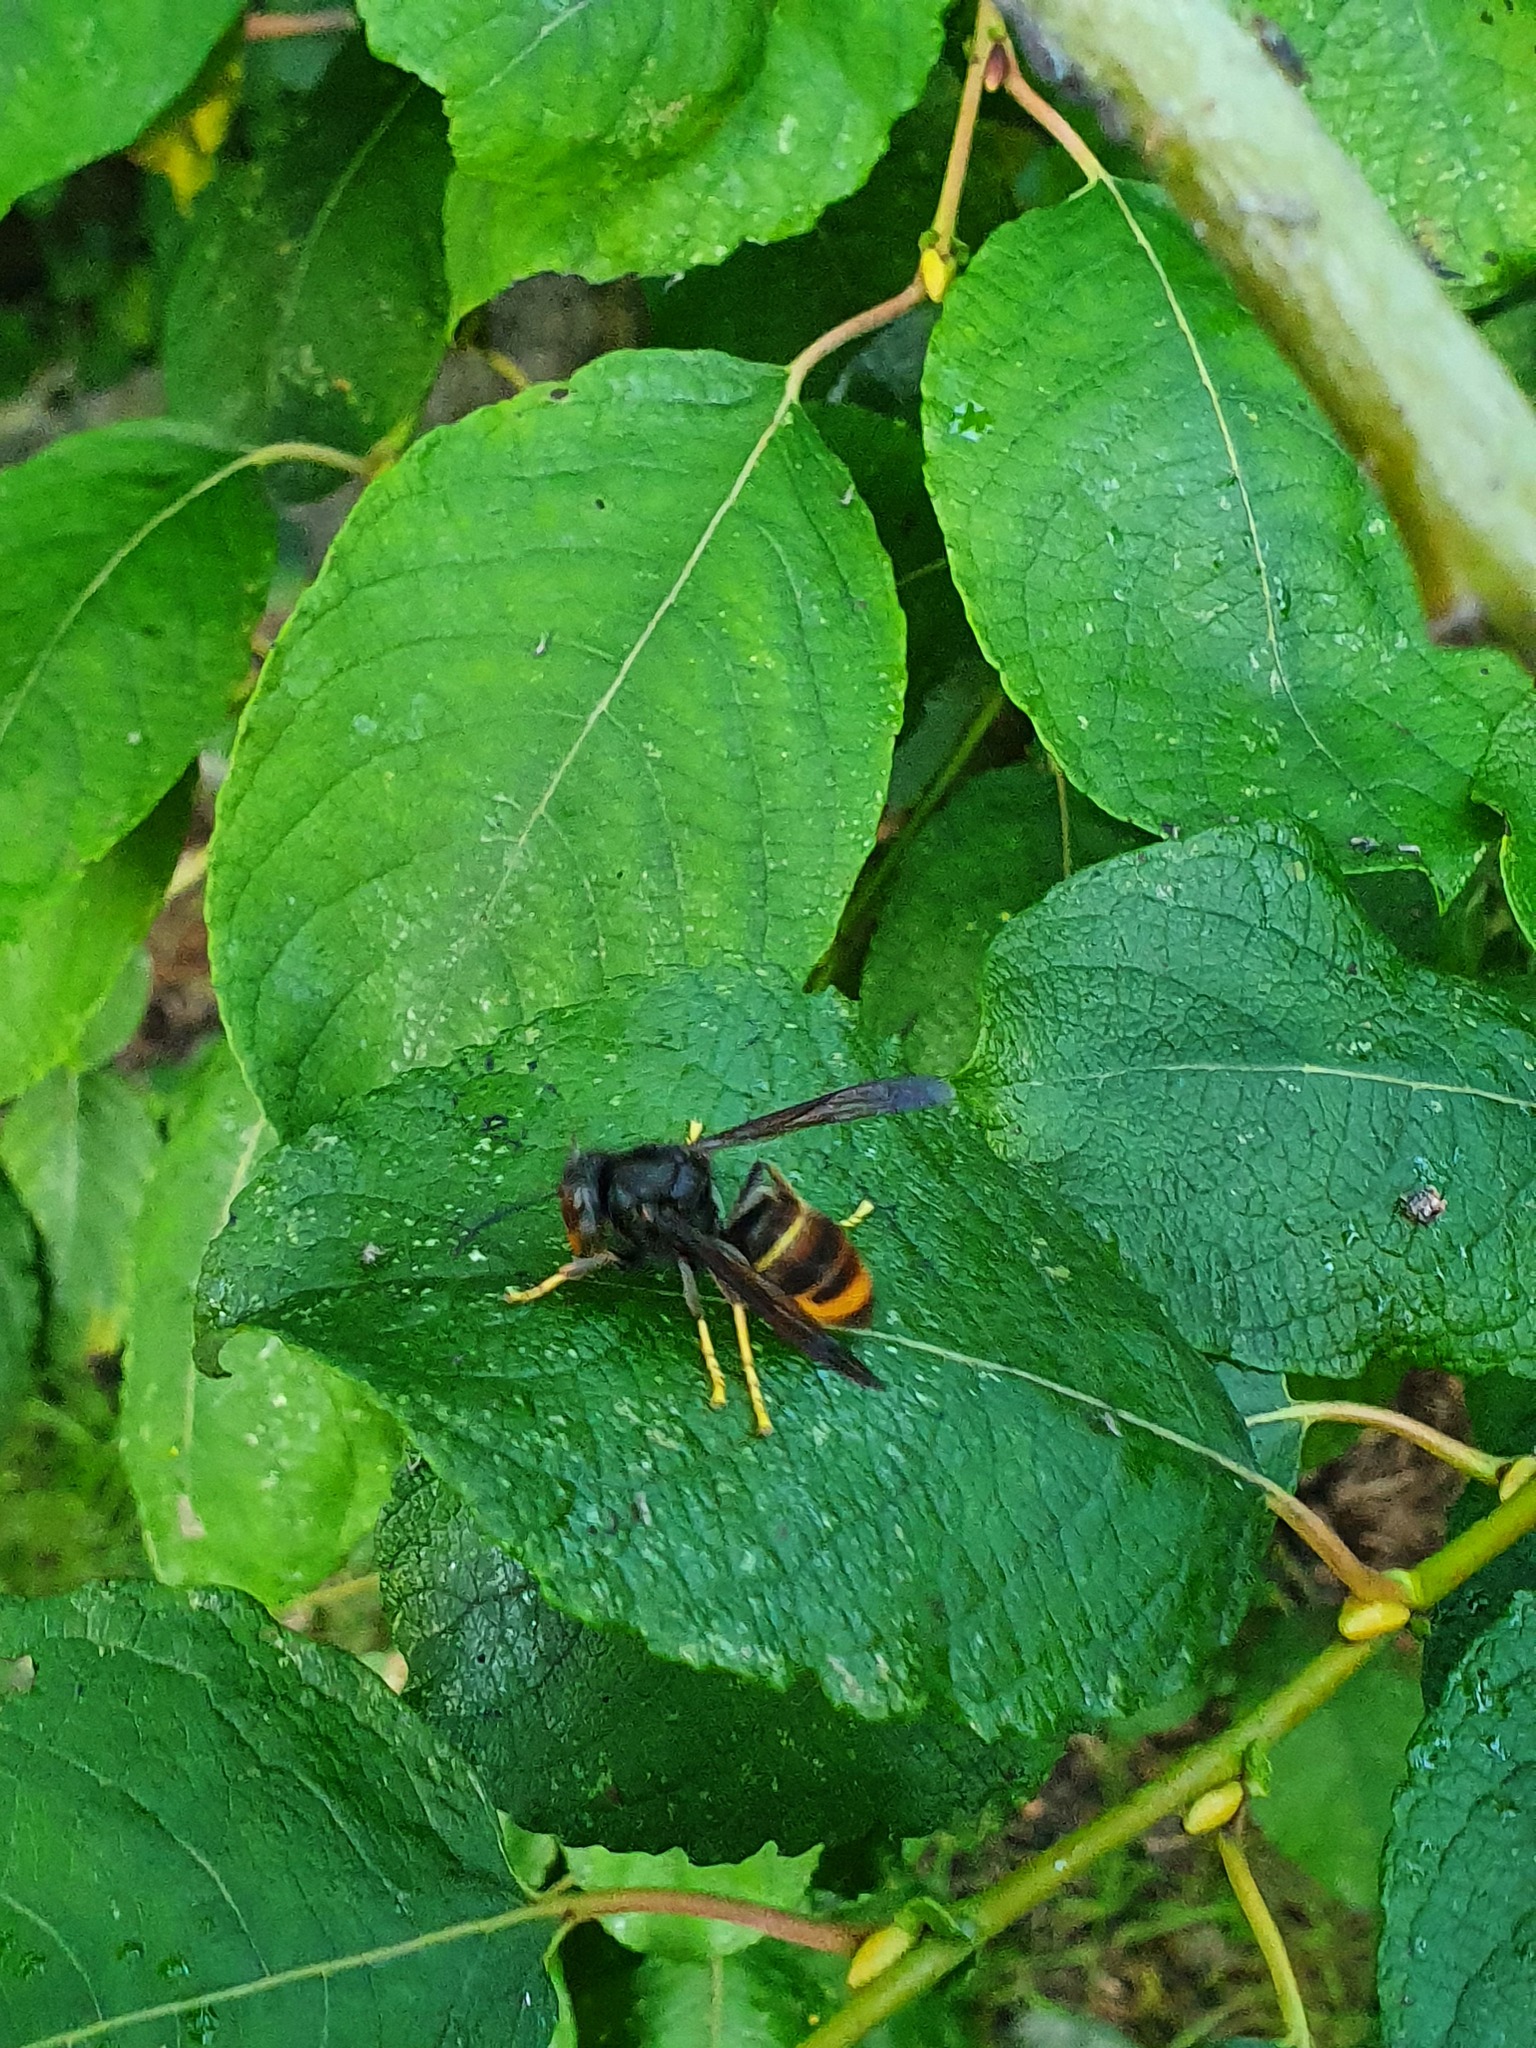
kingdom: Animalia
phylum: Arthropoda
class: Insecta
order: Hymenoptera
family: Vespidae
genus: Vespa
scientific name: Vespa velutina
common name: Asian hornet
